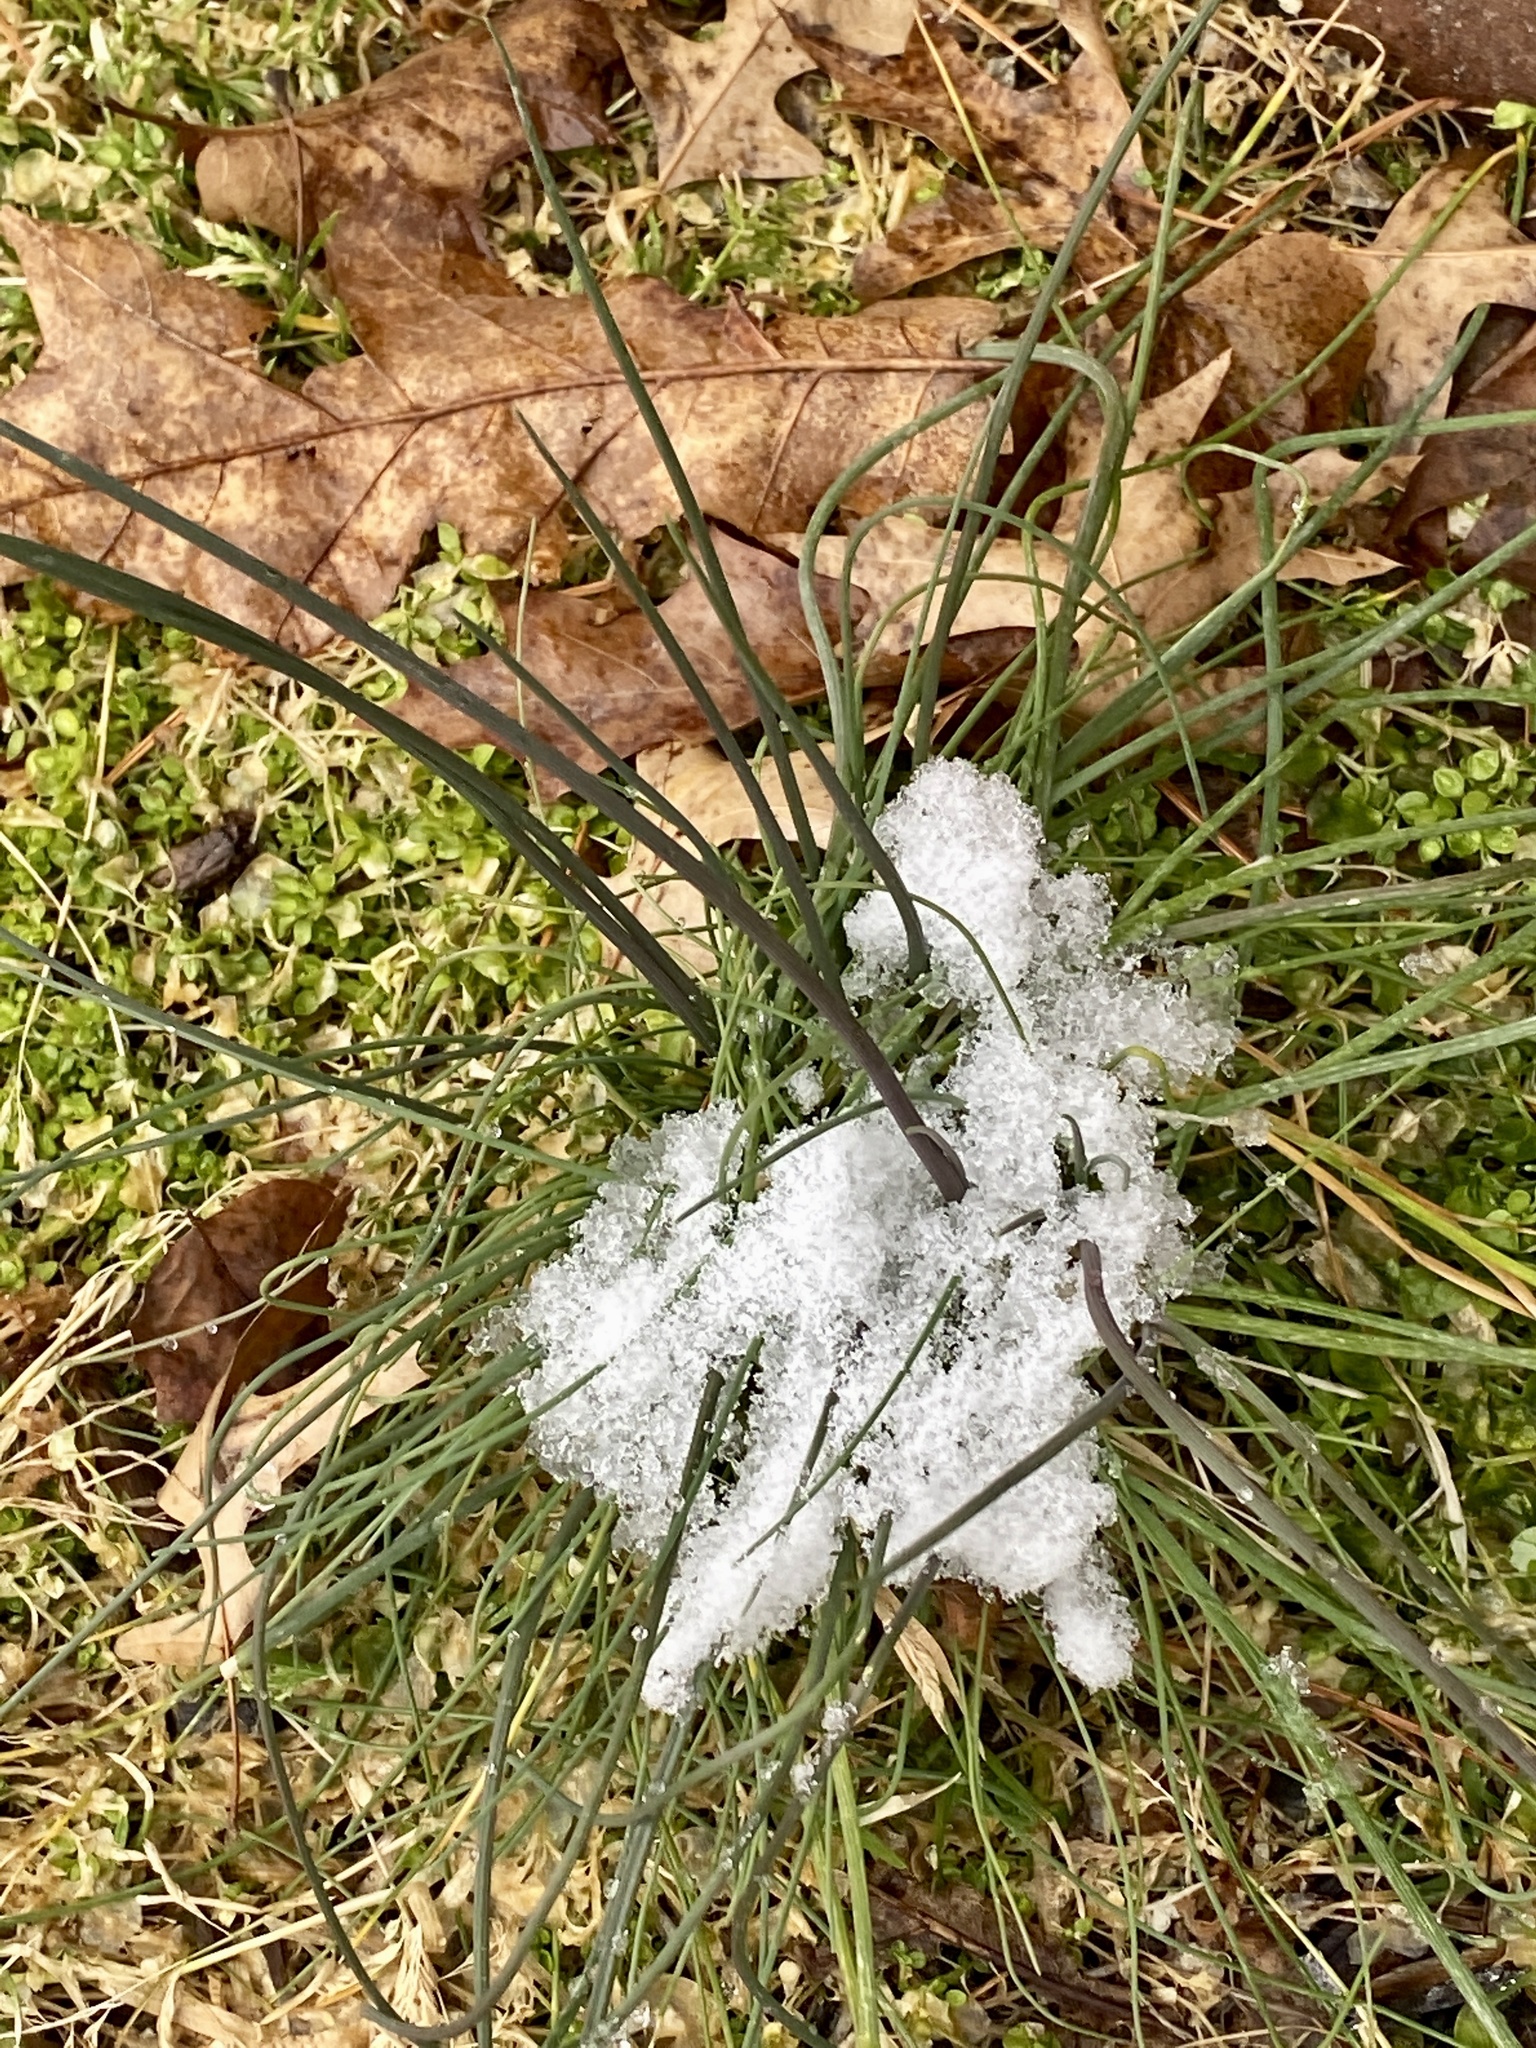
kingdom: Plantae
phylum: Tracheophyta
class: Liliopsida
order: Asparagales
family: Amaryllidaceae
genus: Allium
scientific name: Allium vineale
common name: Crow garlic
